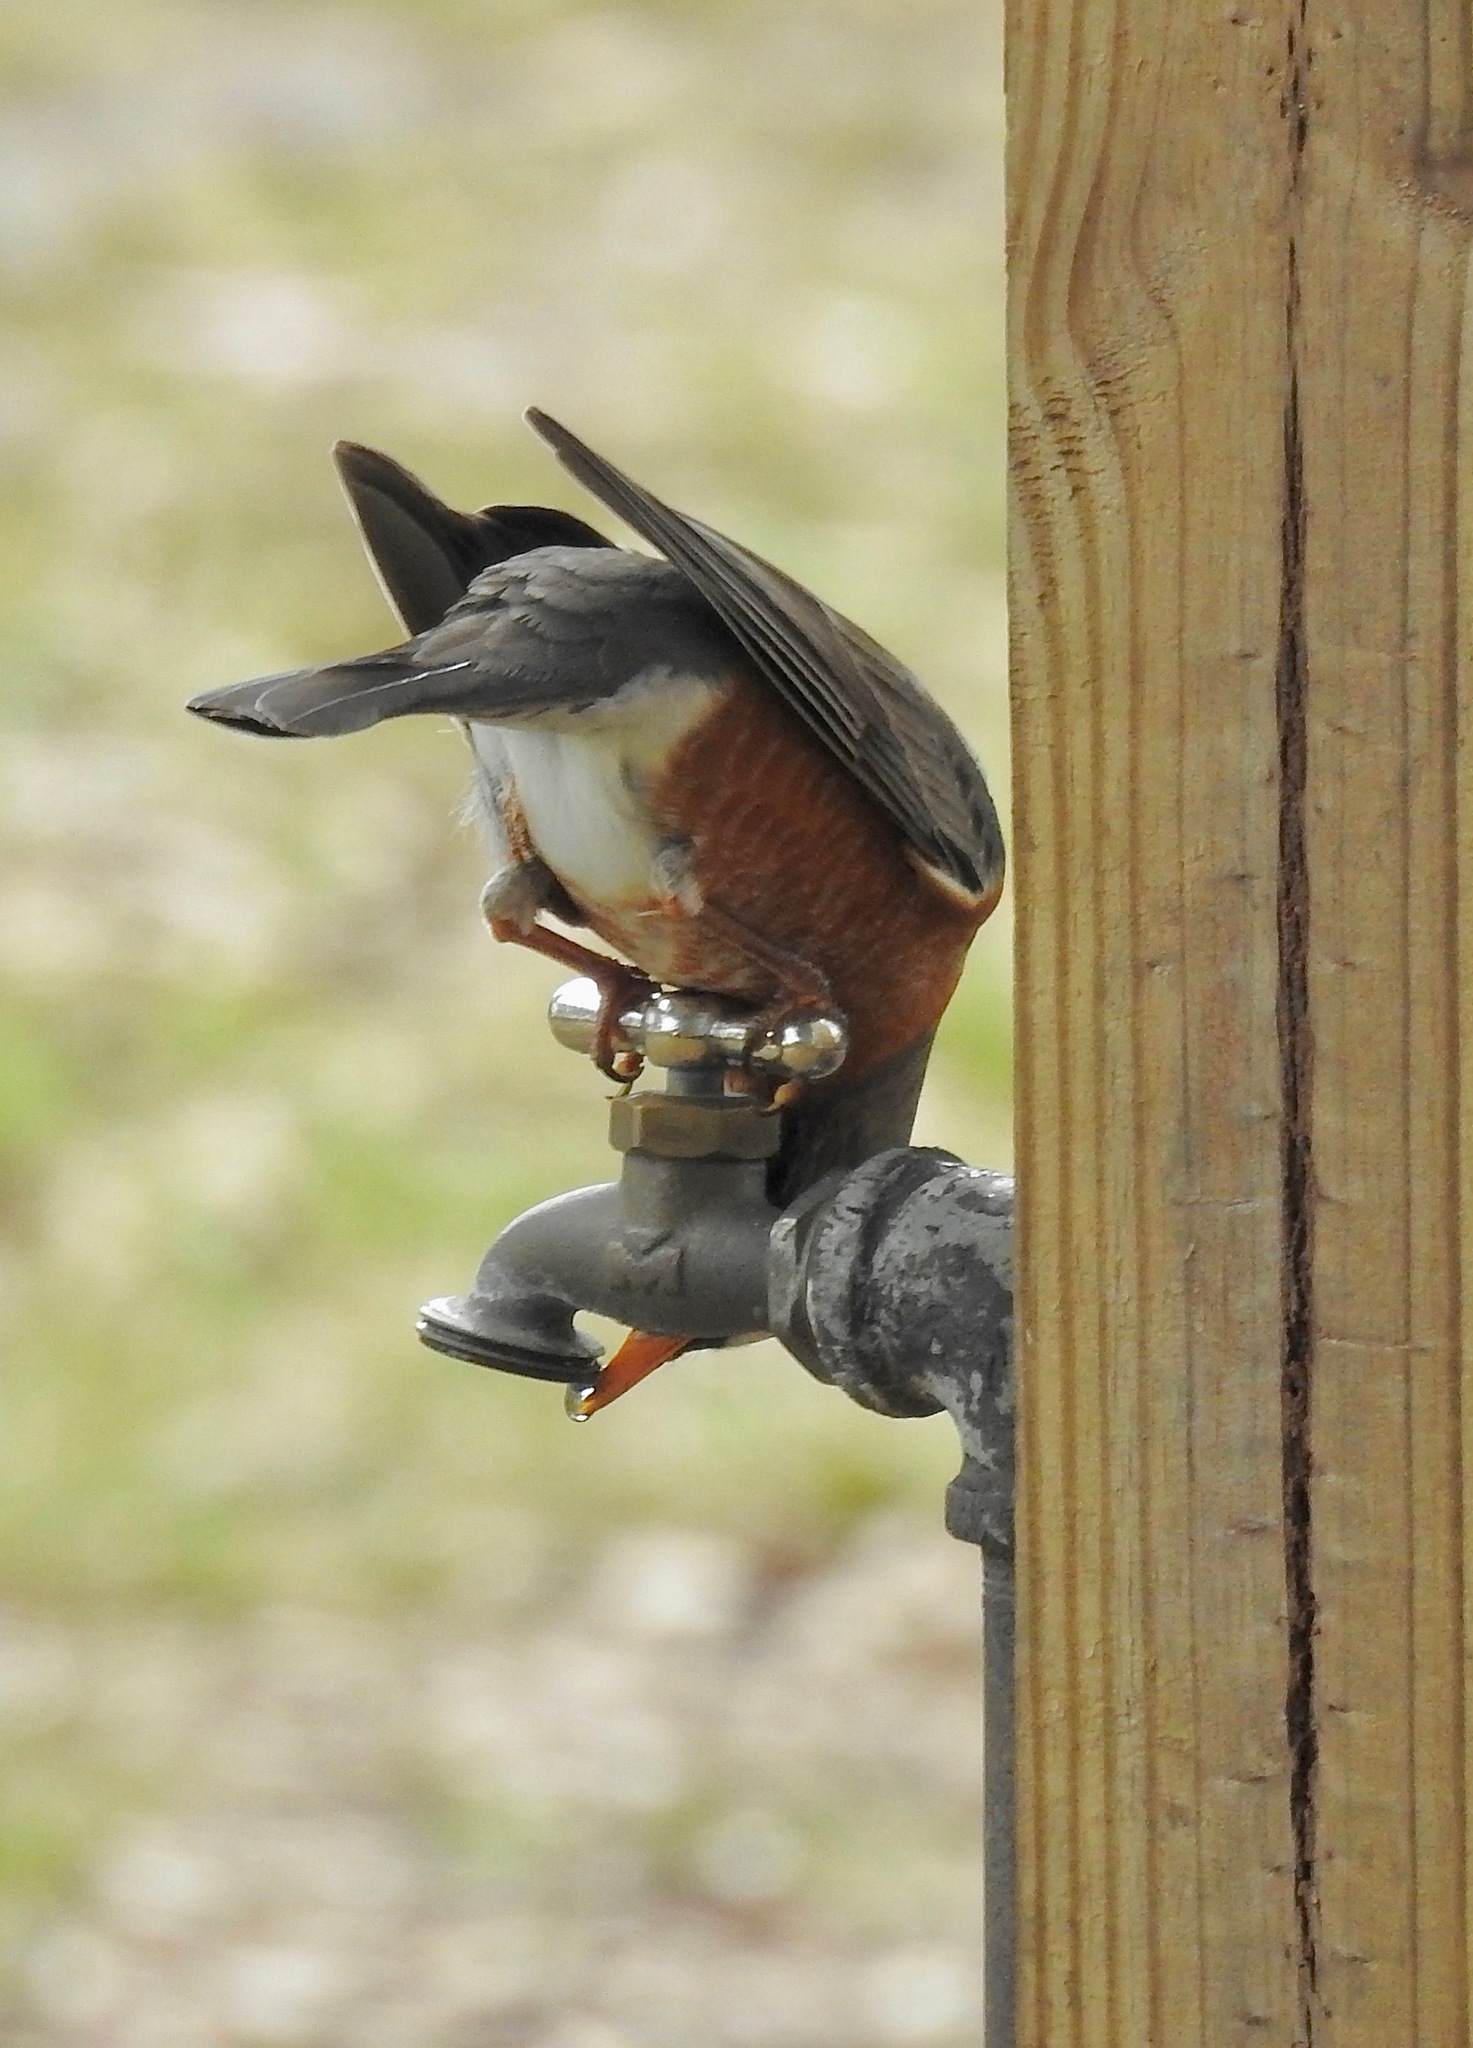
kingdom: Animalia
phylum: Chordata
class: Aves
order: Passeriformes
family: Turdidae
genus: Turdus
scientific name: Turdus migratorius
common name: American robin
